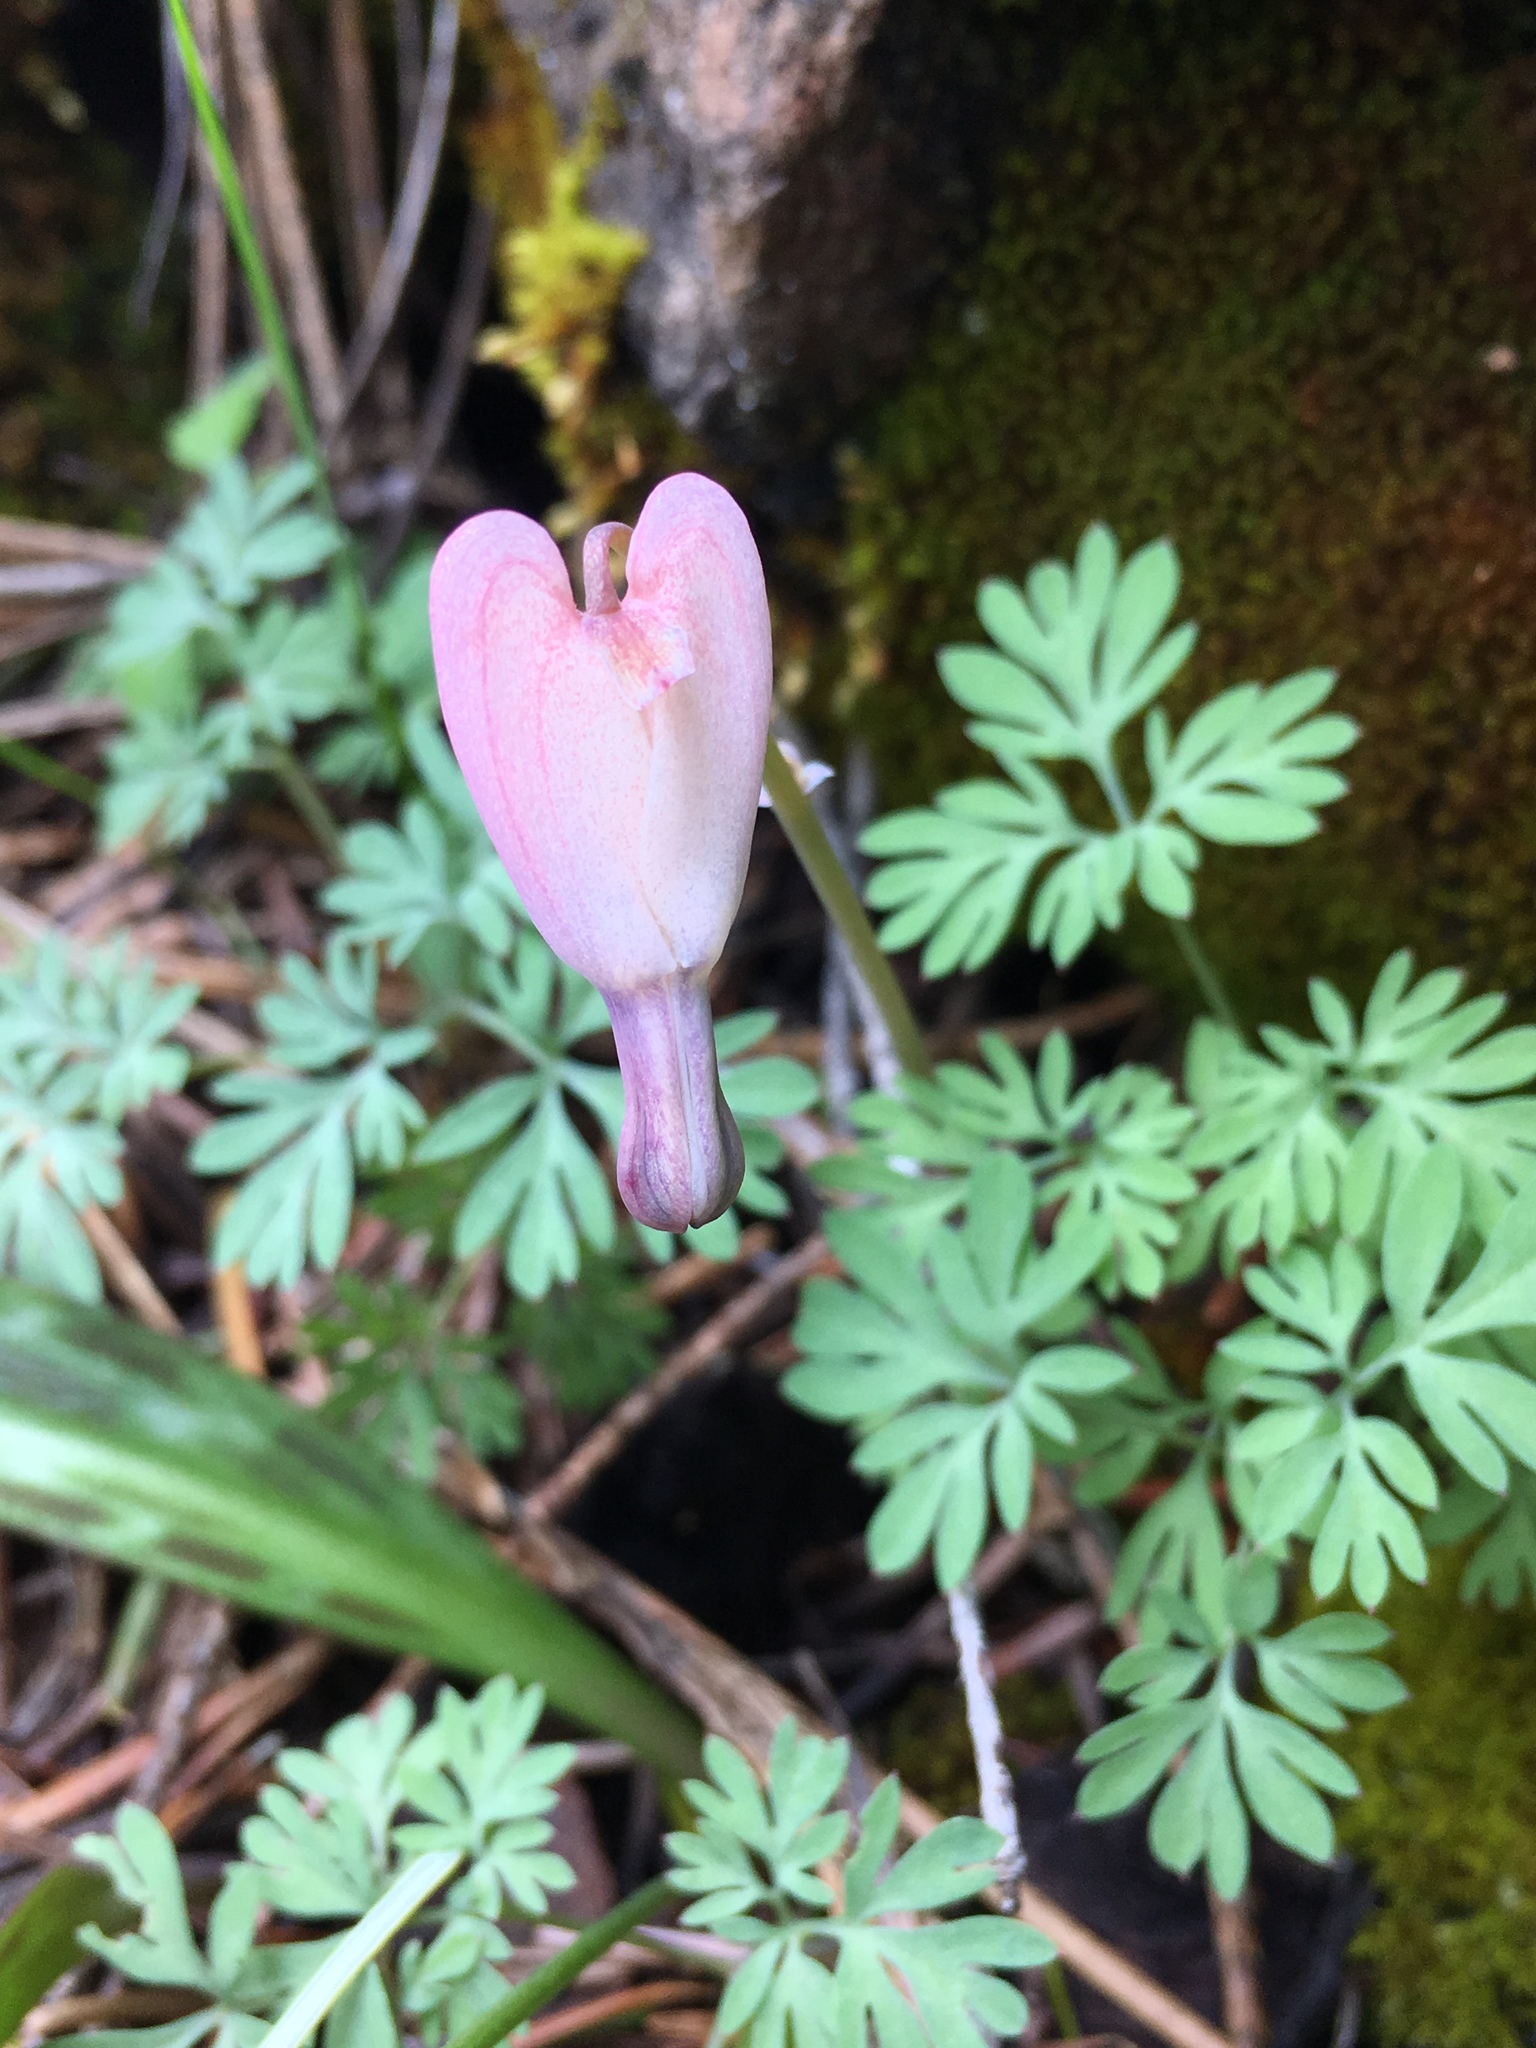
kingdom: Plantae
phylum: Tracheophyta
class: Magnoliopsida
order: Ranunculales
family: Papaveraceae
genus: Dicentra
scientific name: Dicentra formosa
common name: Bleeding-heart
